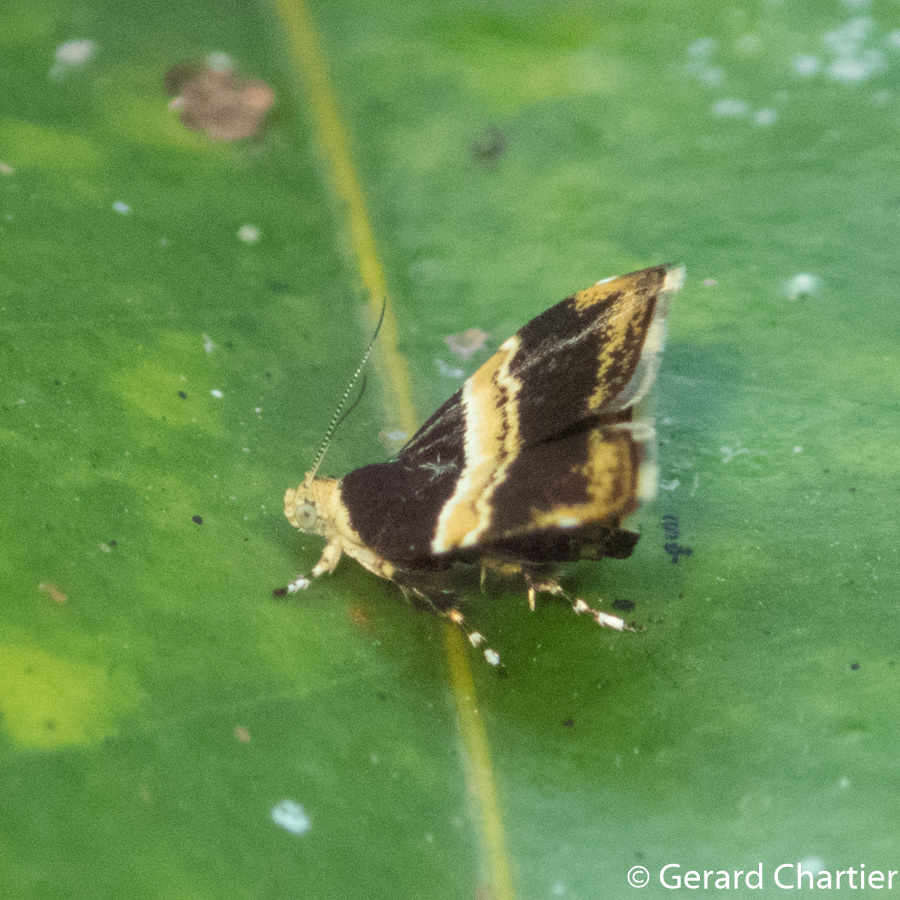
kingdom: Animalia
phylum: Arthropoda
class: Insecta
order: Lepidoptera
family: Choreutidae
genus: Choreutis
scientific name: Choreutis basalis
